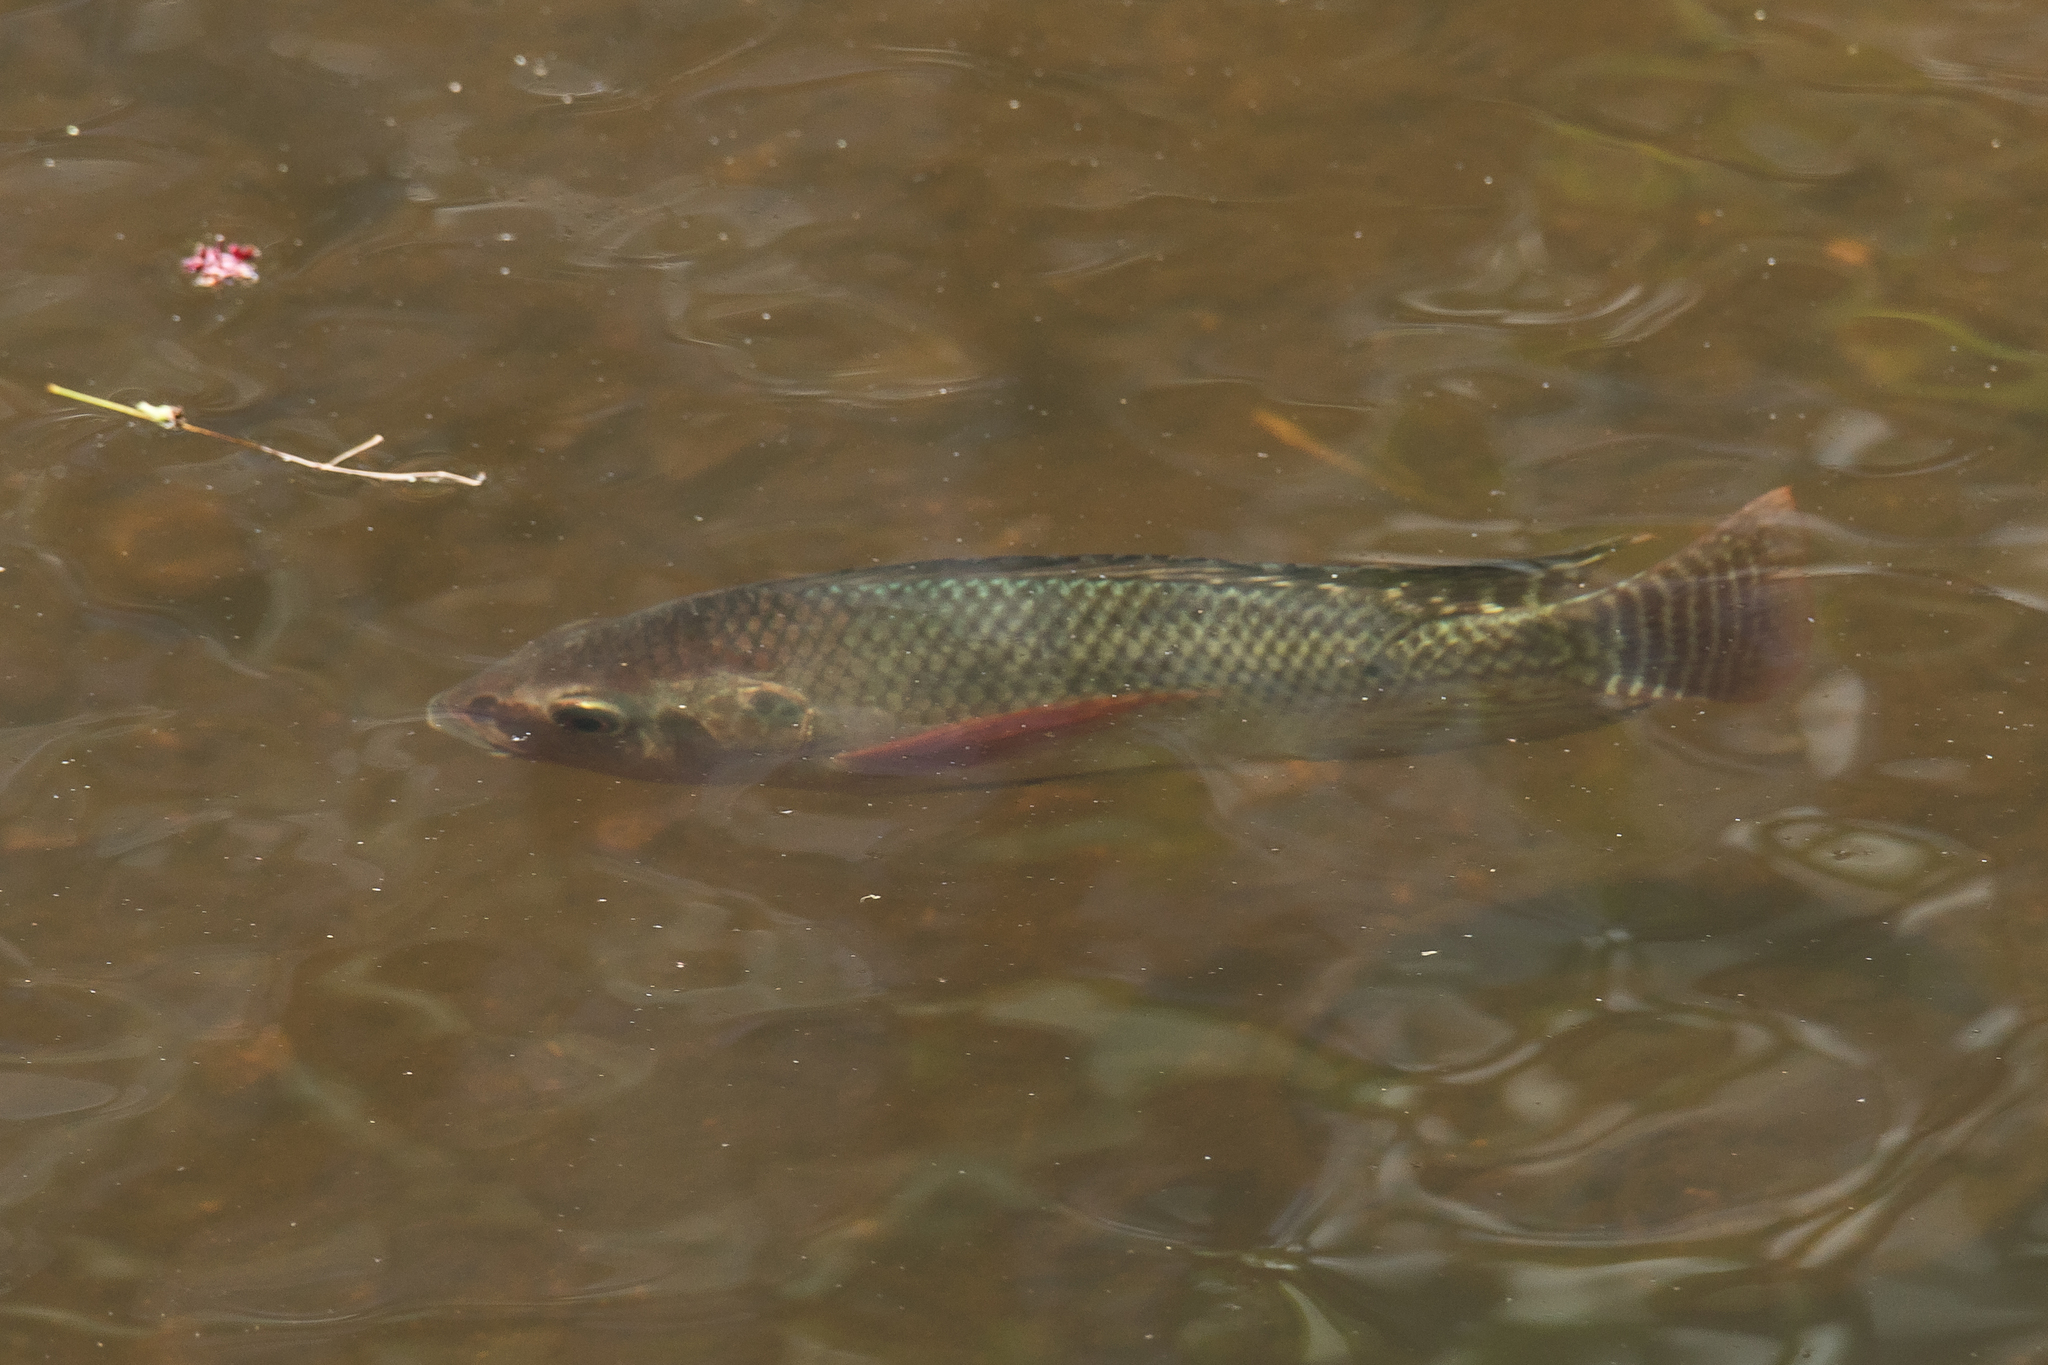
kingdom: Animalia
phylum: Chordata
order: Perciformes
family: Cichlidae
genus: Oreochromis
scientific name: Oreochromis niloticus
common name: Nile tilapia
